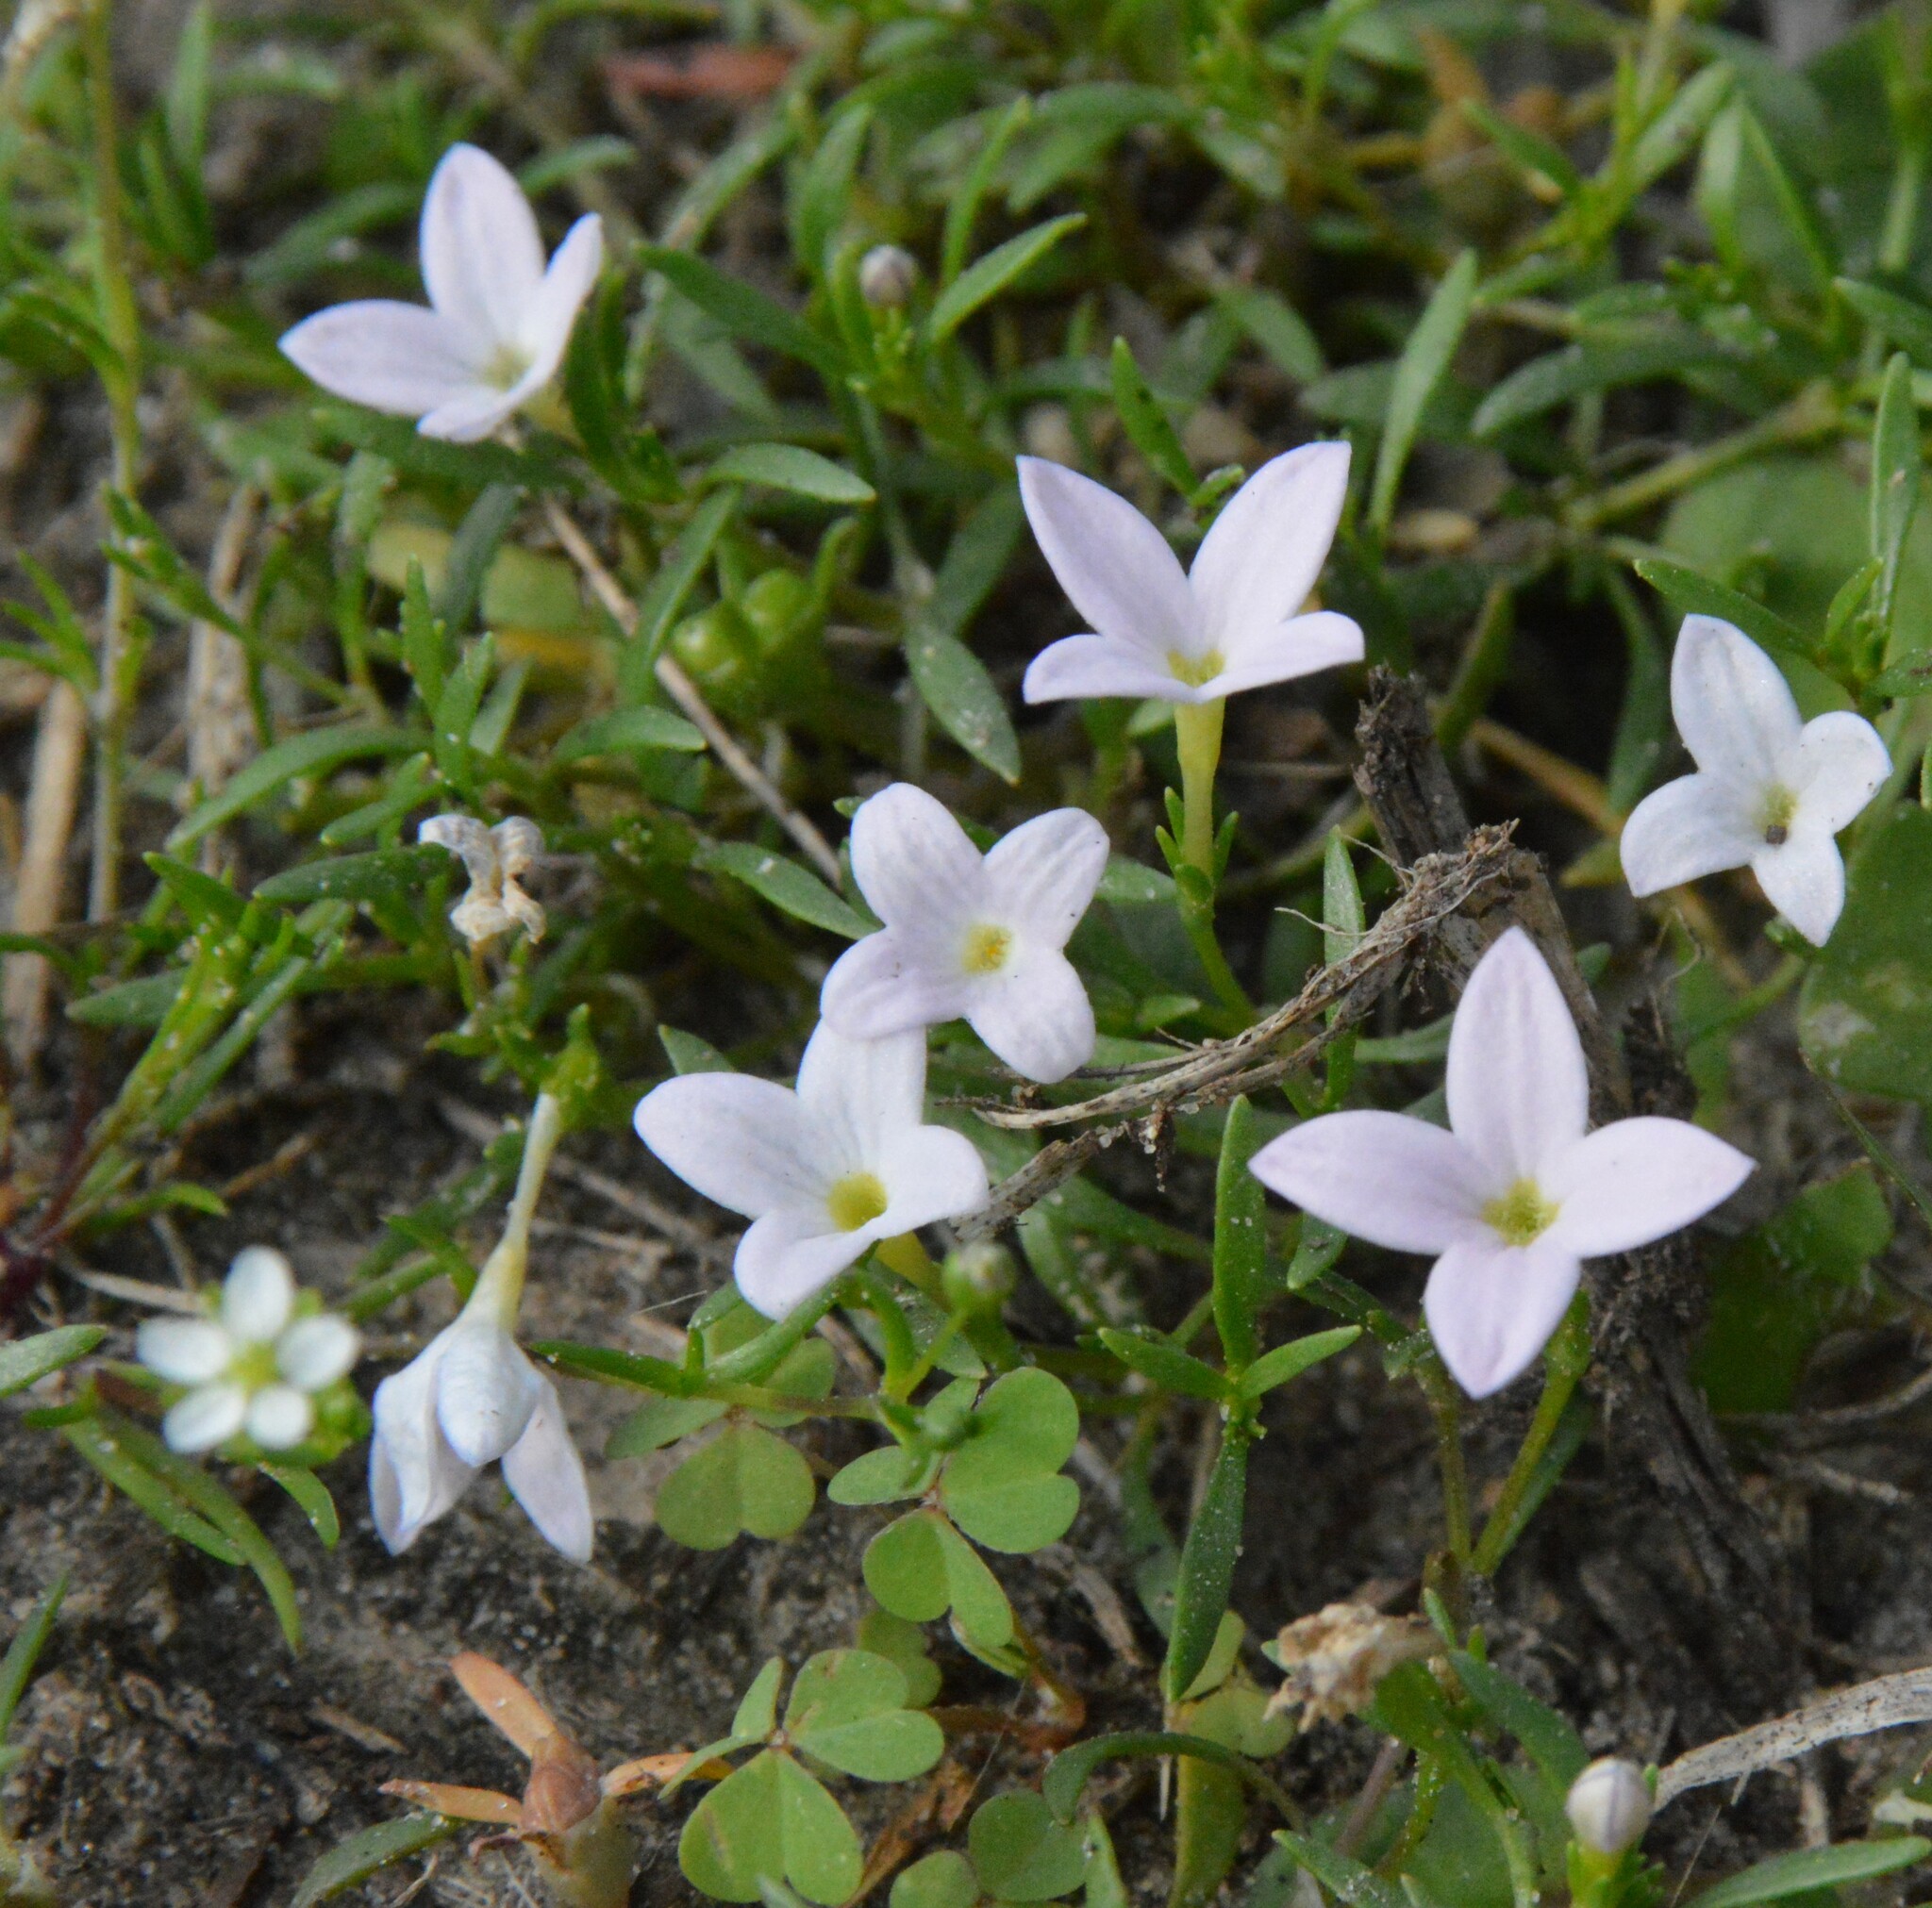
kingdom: Plantae
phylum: Tracheophyta
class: Magnoliopsida
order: Gentianales
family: Rubiaceae
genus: Houstonia
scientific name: Houstonia rosea
